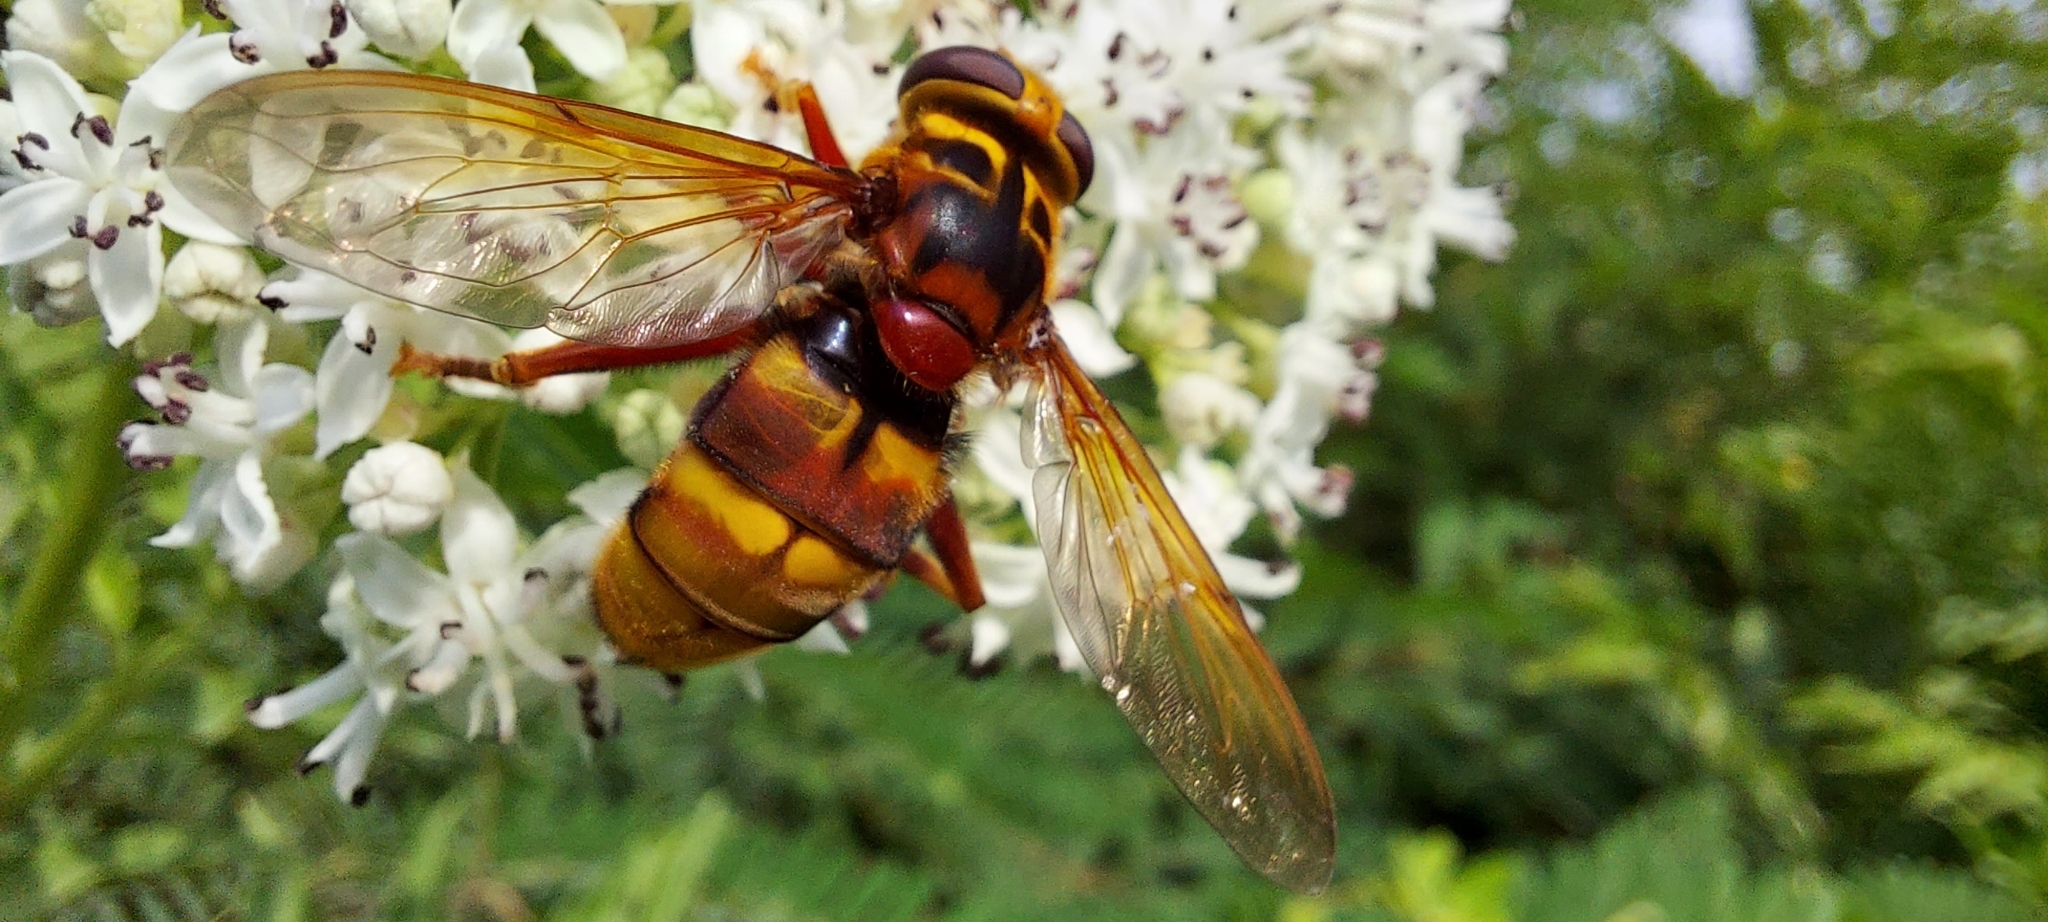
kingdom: Animalia
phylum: Arthropoda
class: Insecta
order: Diptera
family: Syrphidae
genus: Milesia
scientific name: Milesia crabroniformis
